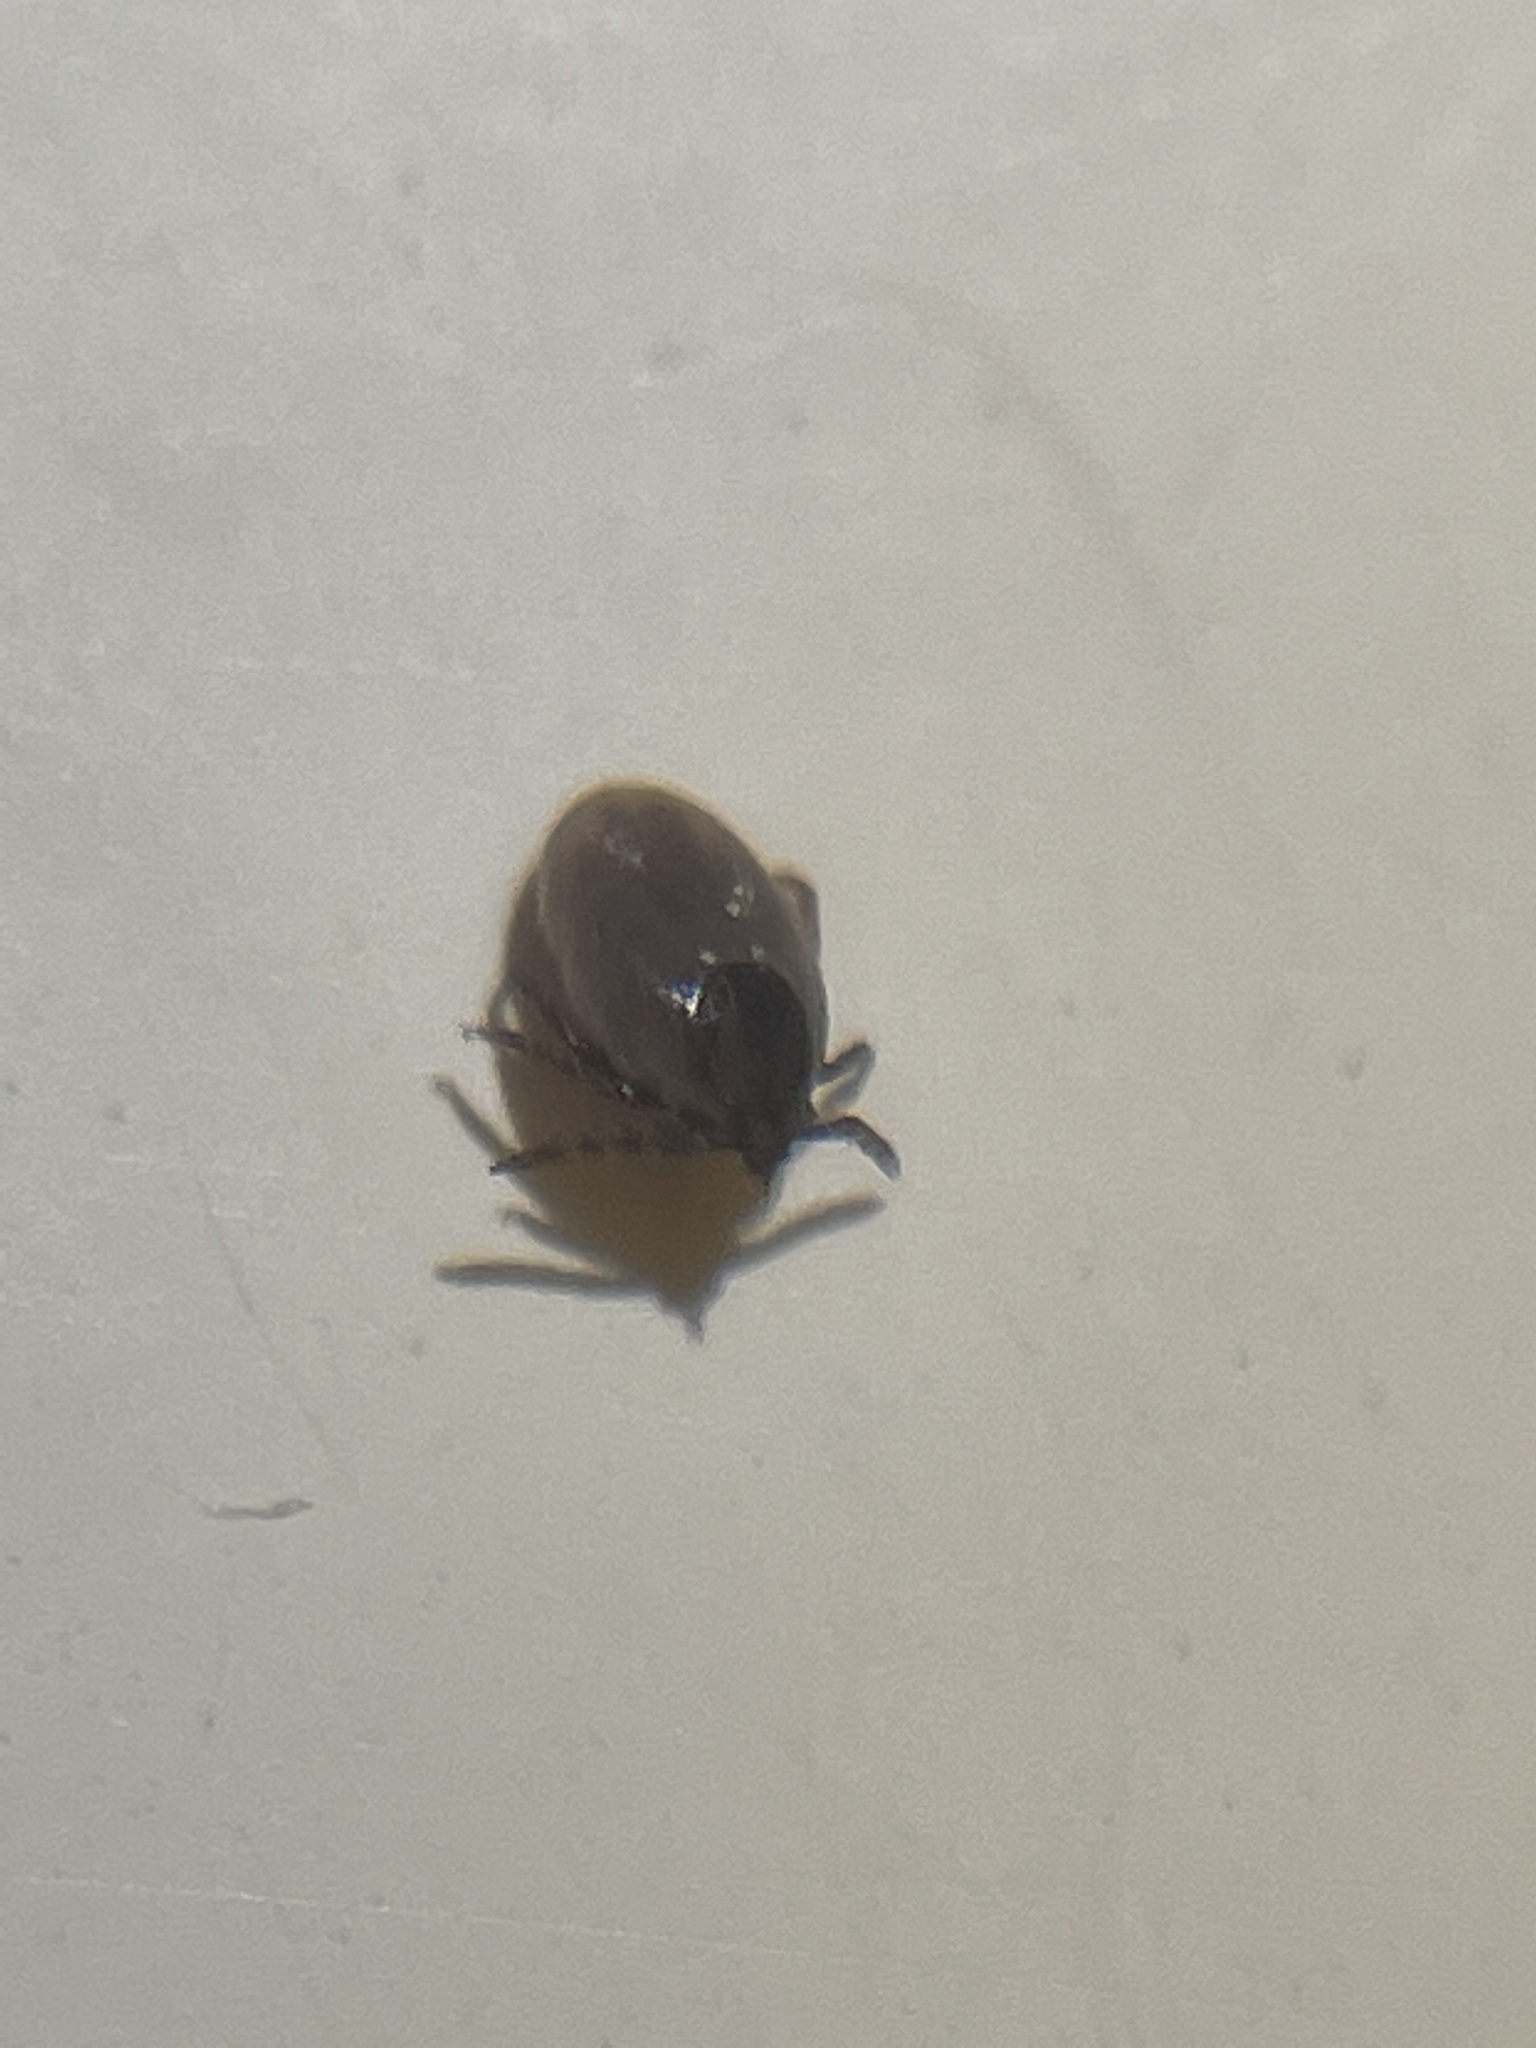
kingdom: Animalia
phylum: Arthropoda
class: Arachnida
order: Ixodida
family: Ixodidae
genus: Ixodes
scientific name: Ixodes scapularis
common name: Black legged tick
